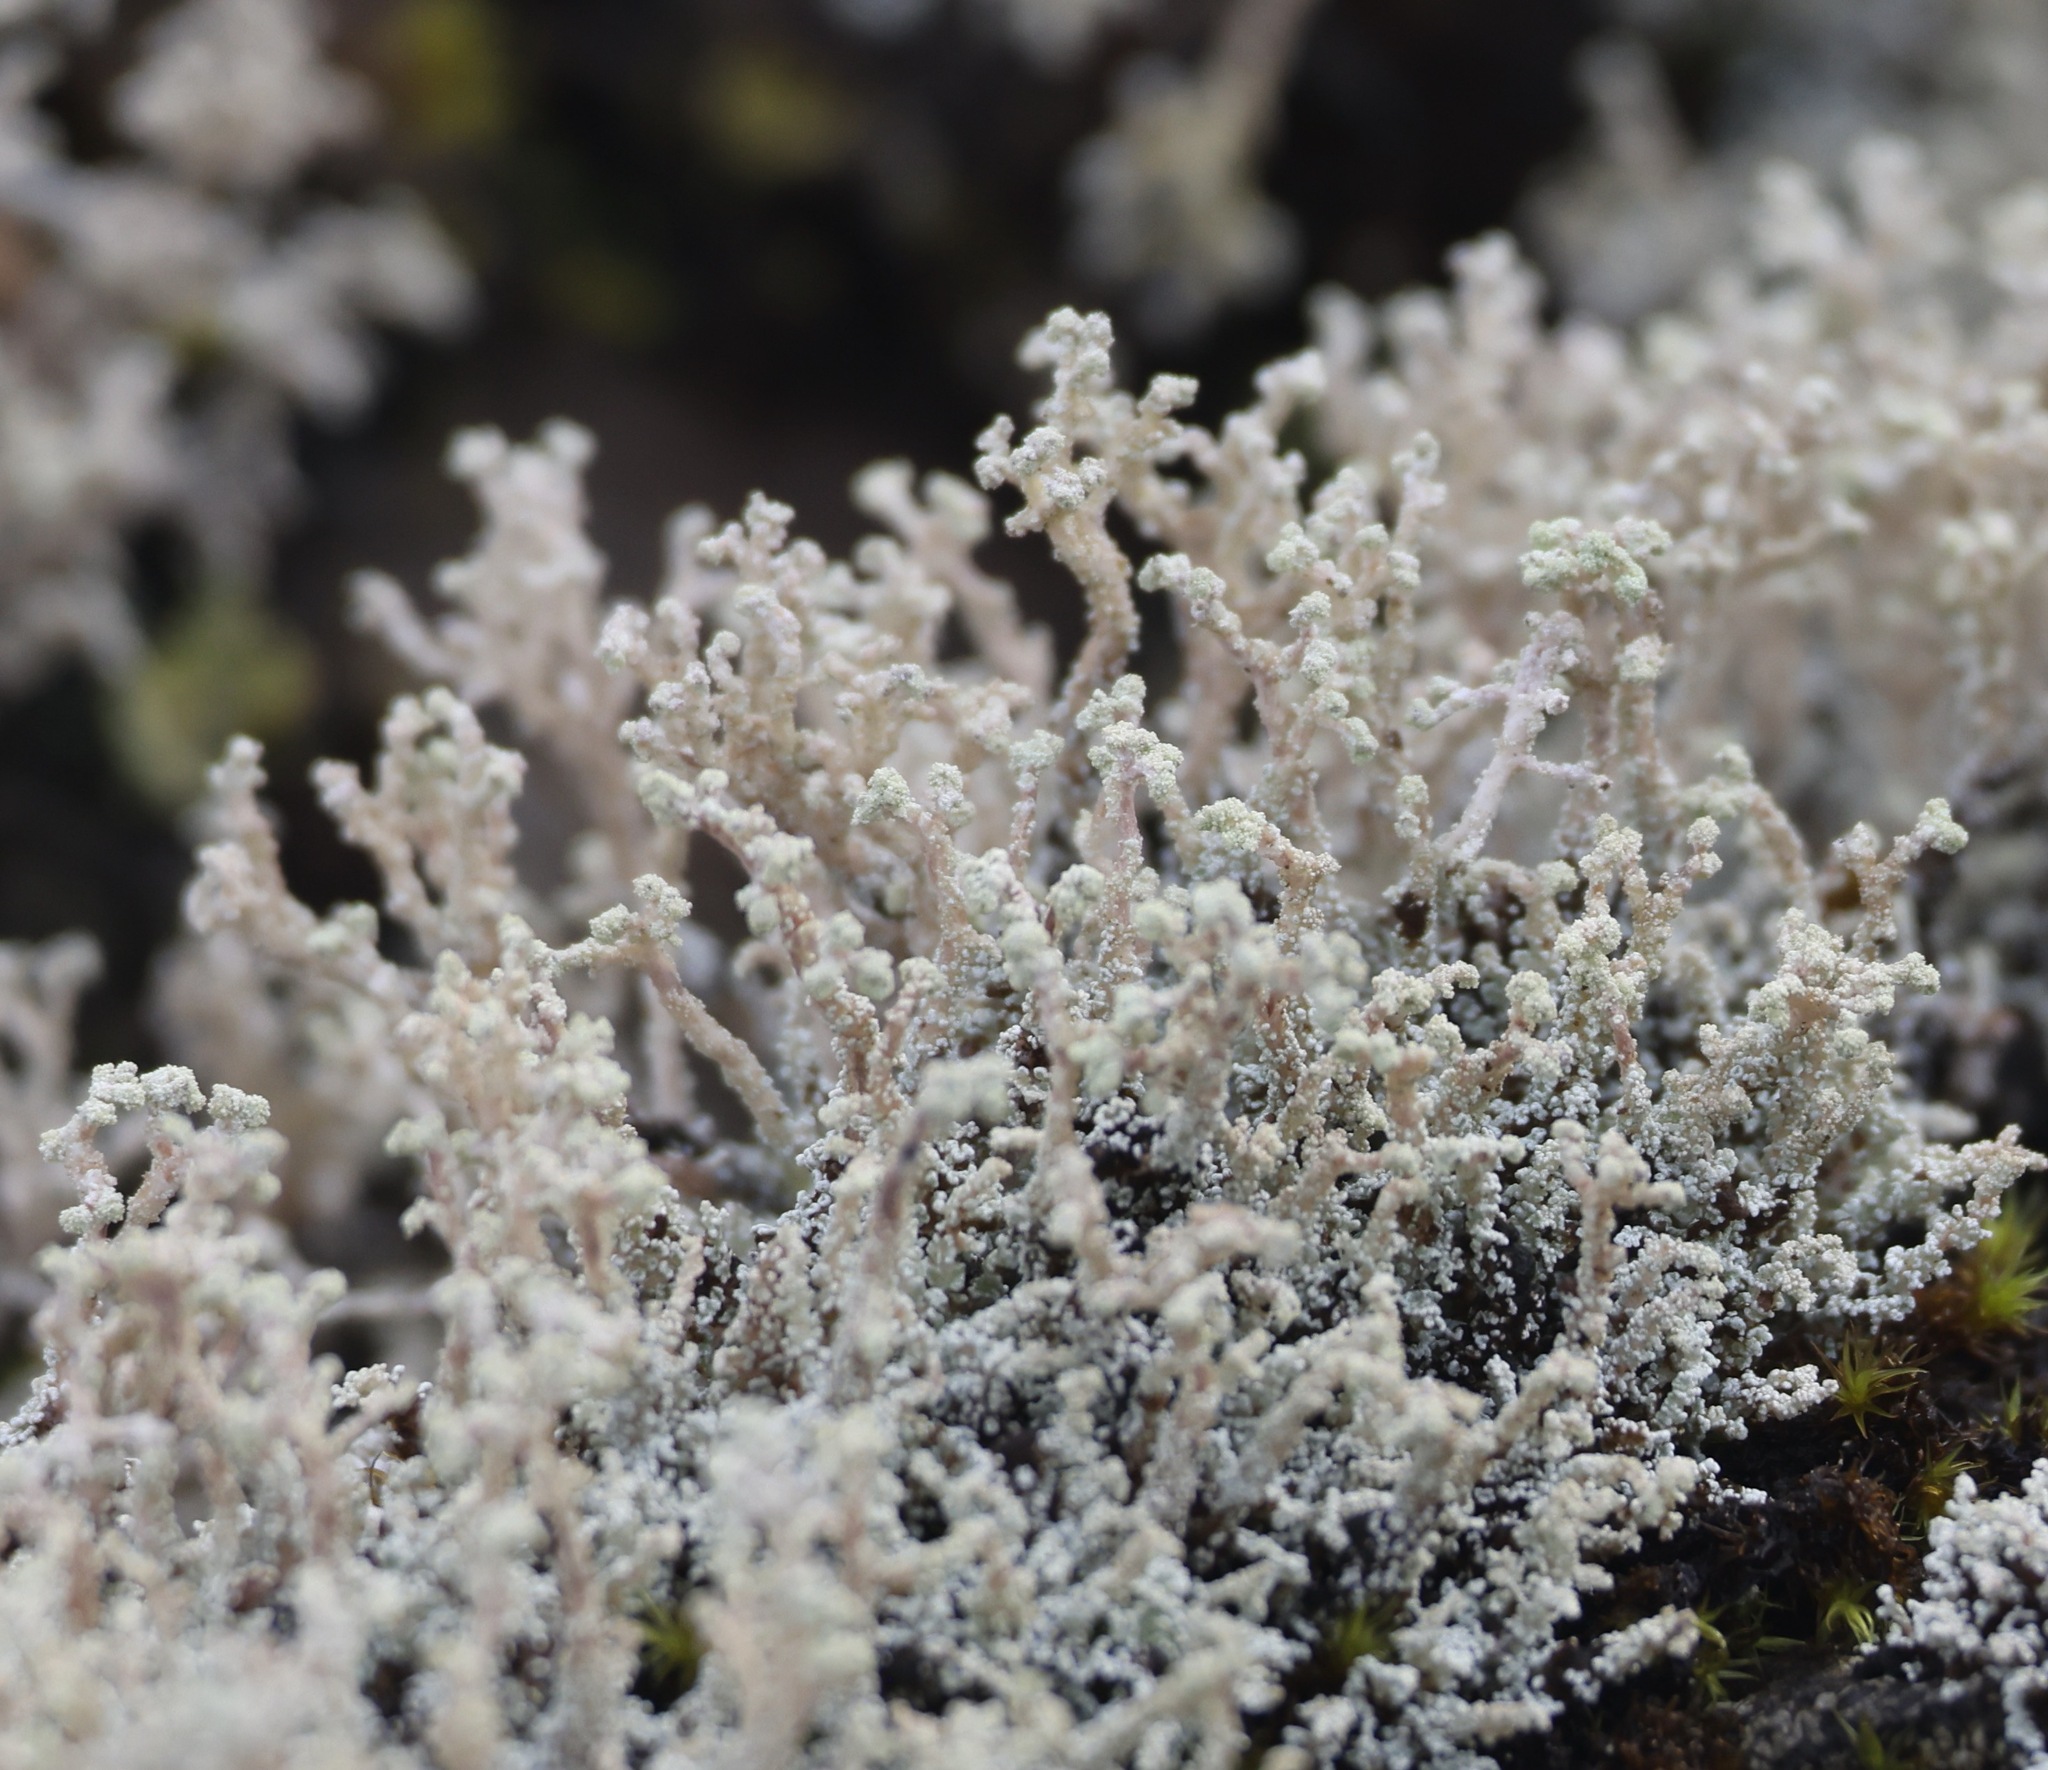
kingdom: Fungi
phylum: Ascomycota
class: Lecanoromycetes
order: Lecanorales
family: Stereocaulaceae
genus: Stereocaulon
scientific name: Stereocaulon vesuvianum
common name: Variegated foam lichen
